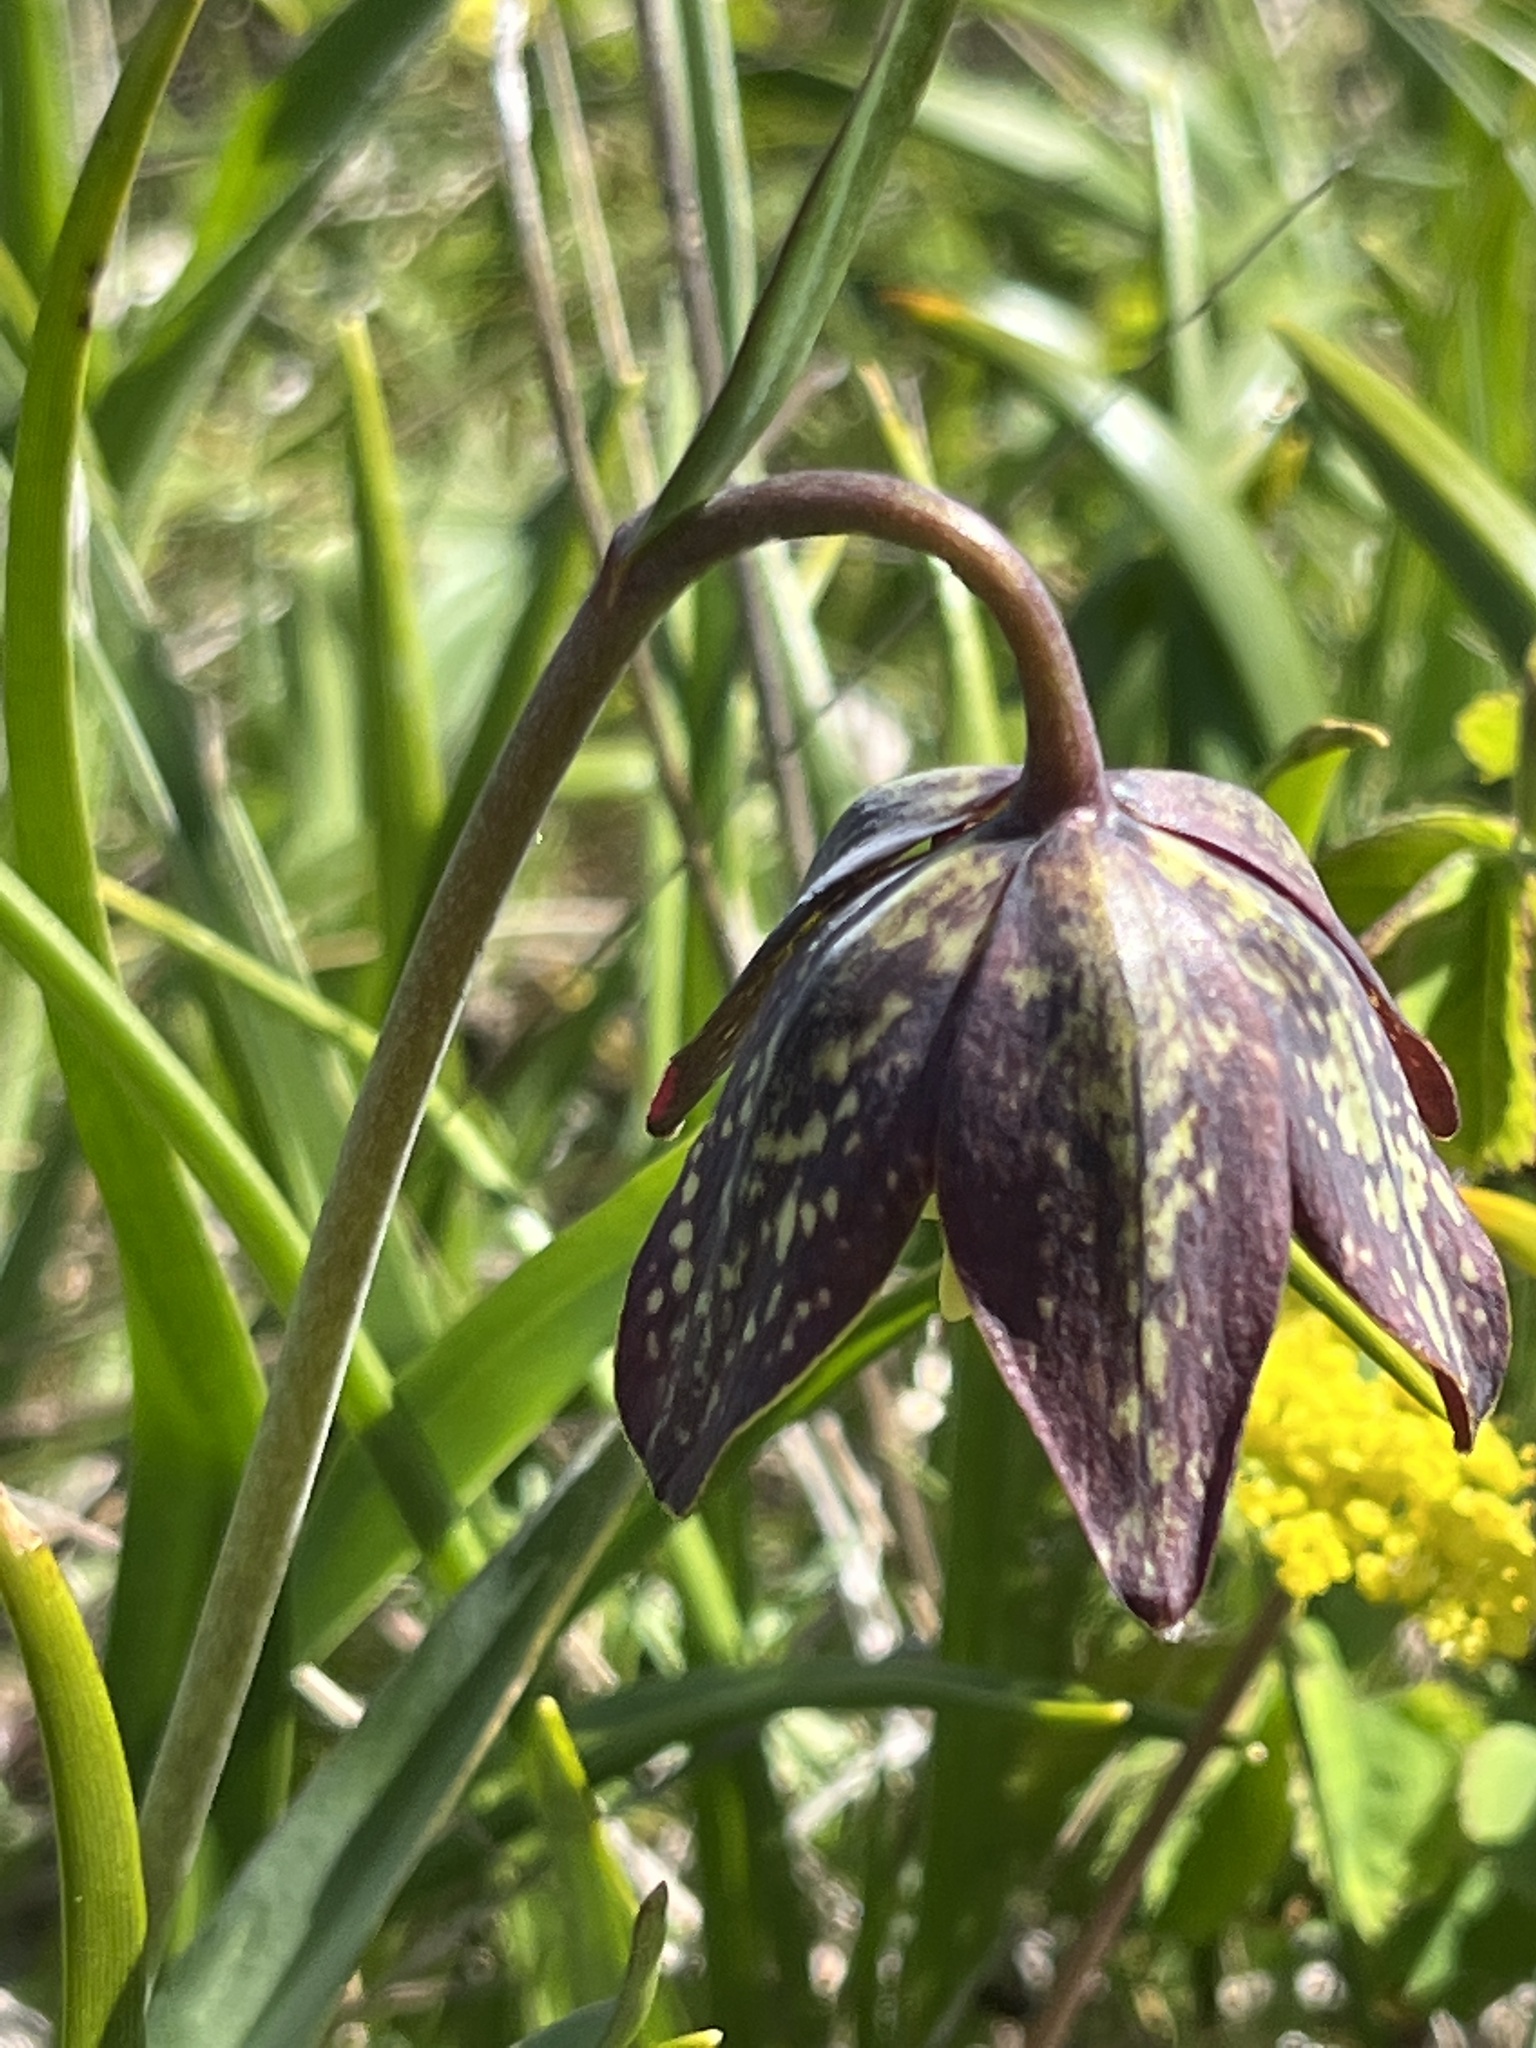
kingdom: Plantae
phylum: Tracheophyta
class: Liliopsida
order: Liliales
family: Liliaceae
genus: Fritillaria
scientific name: Fritillaria affinis
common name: Ojai fritillary
